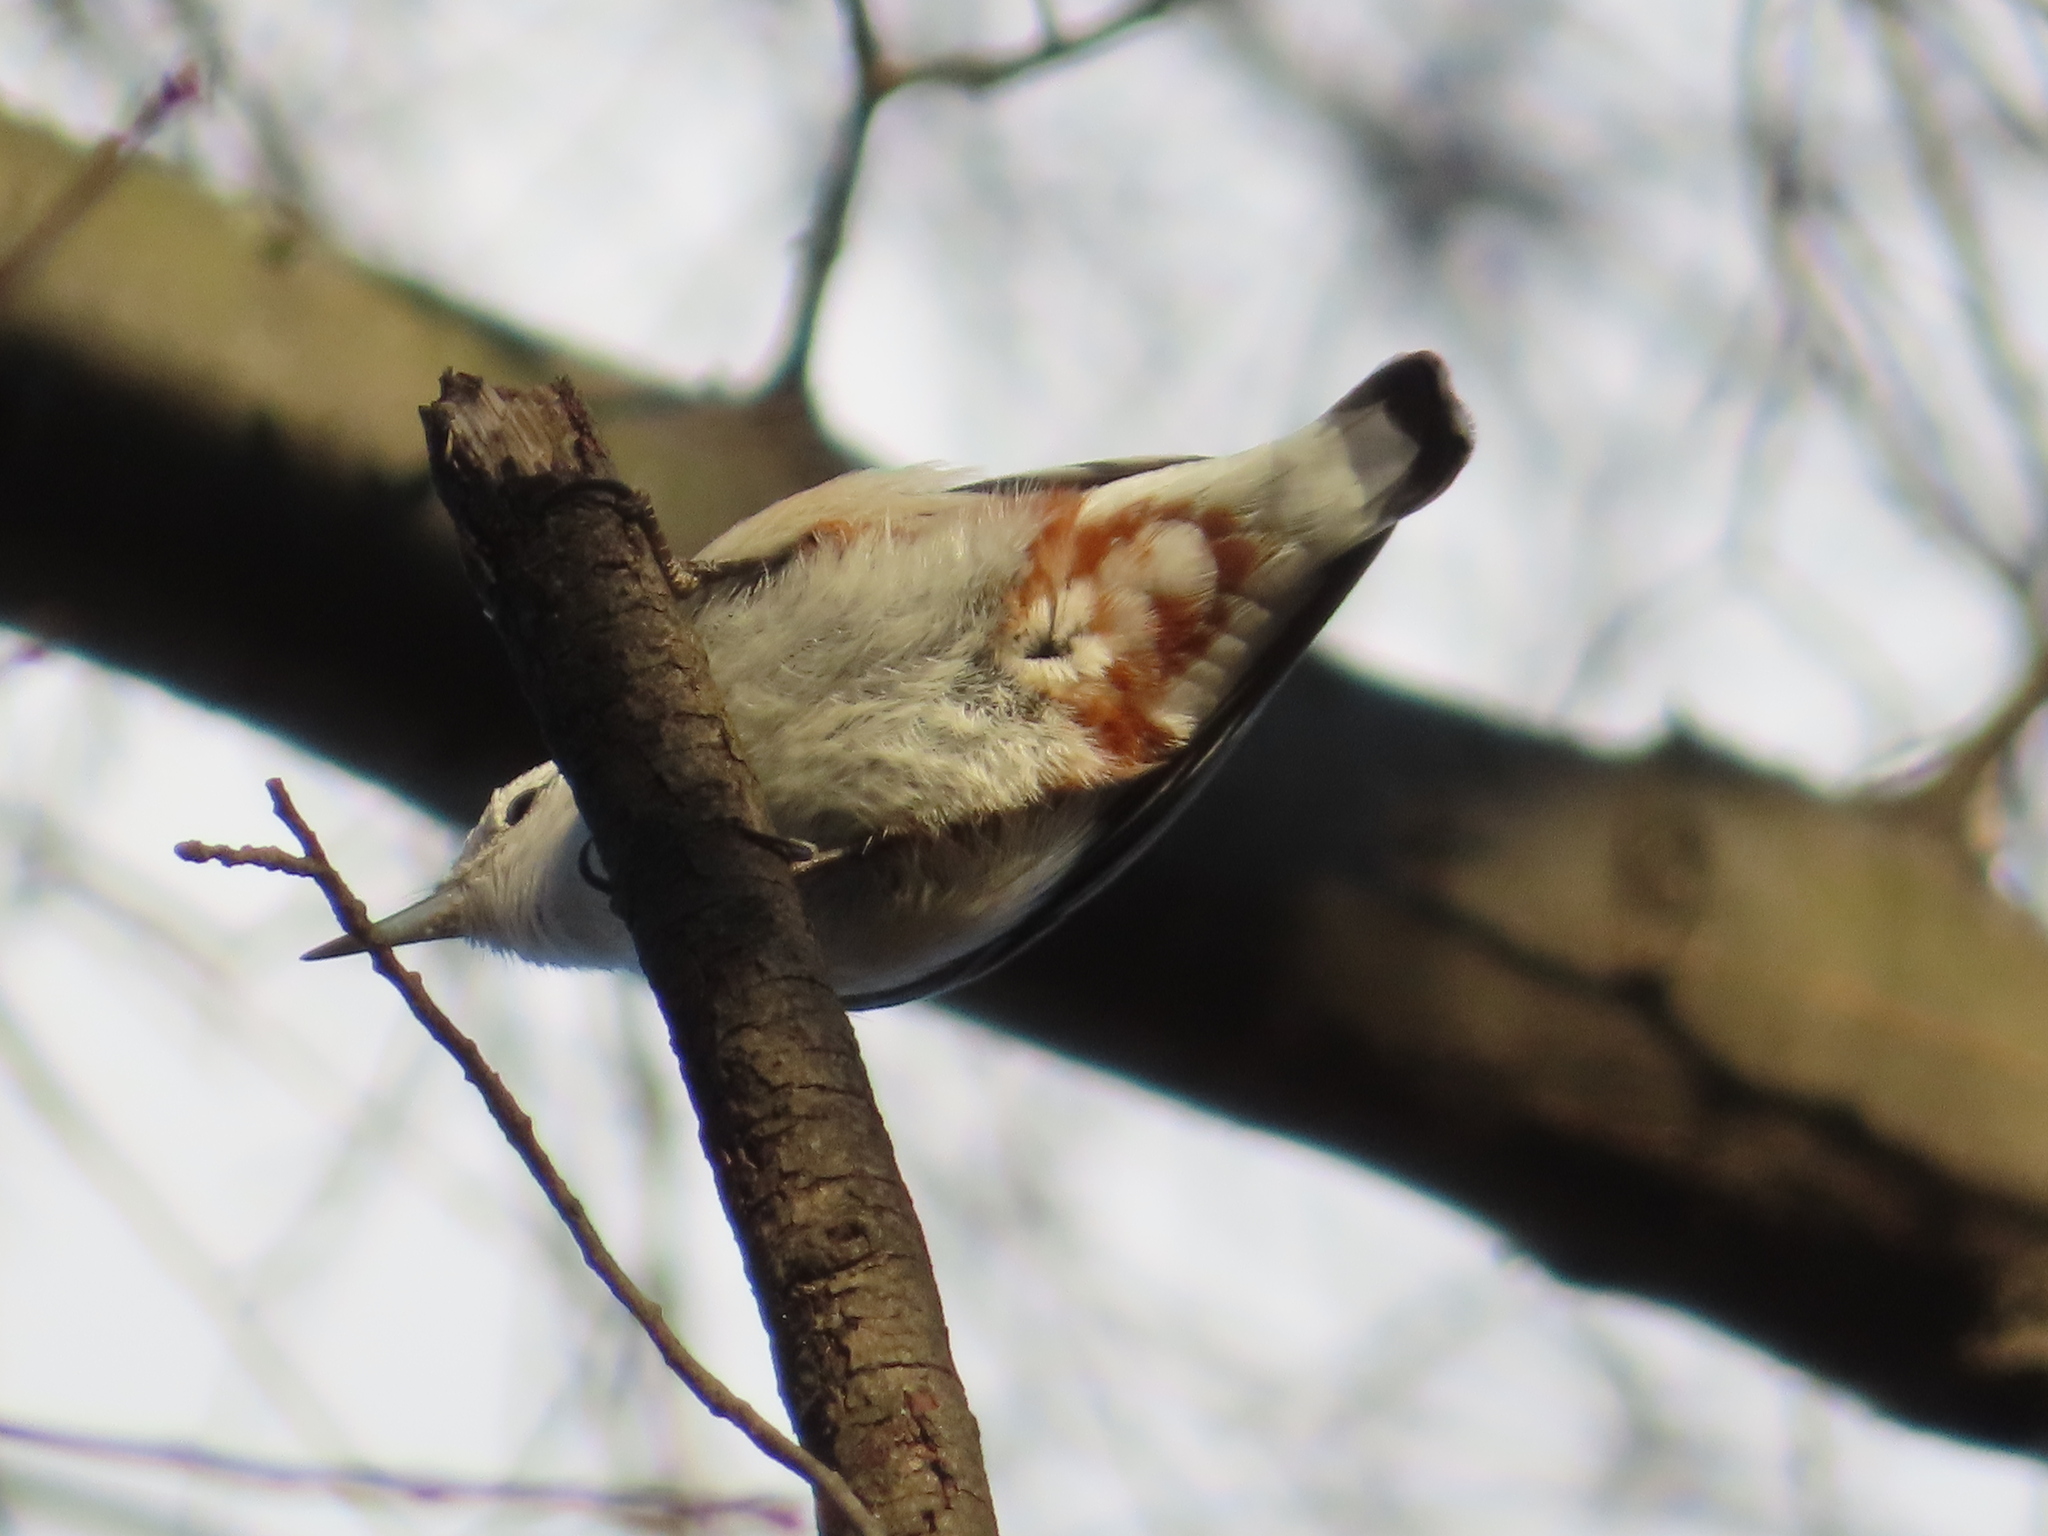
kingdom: Animalia
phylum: Chordata
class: Aves
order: Passeriformes
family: Sittidae
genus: Sitta
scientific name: Sitta carolinensis
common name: White-breasted nuthatch
